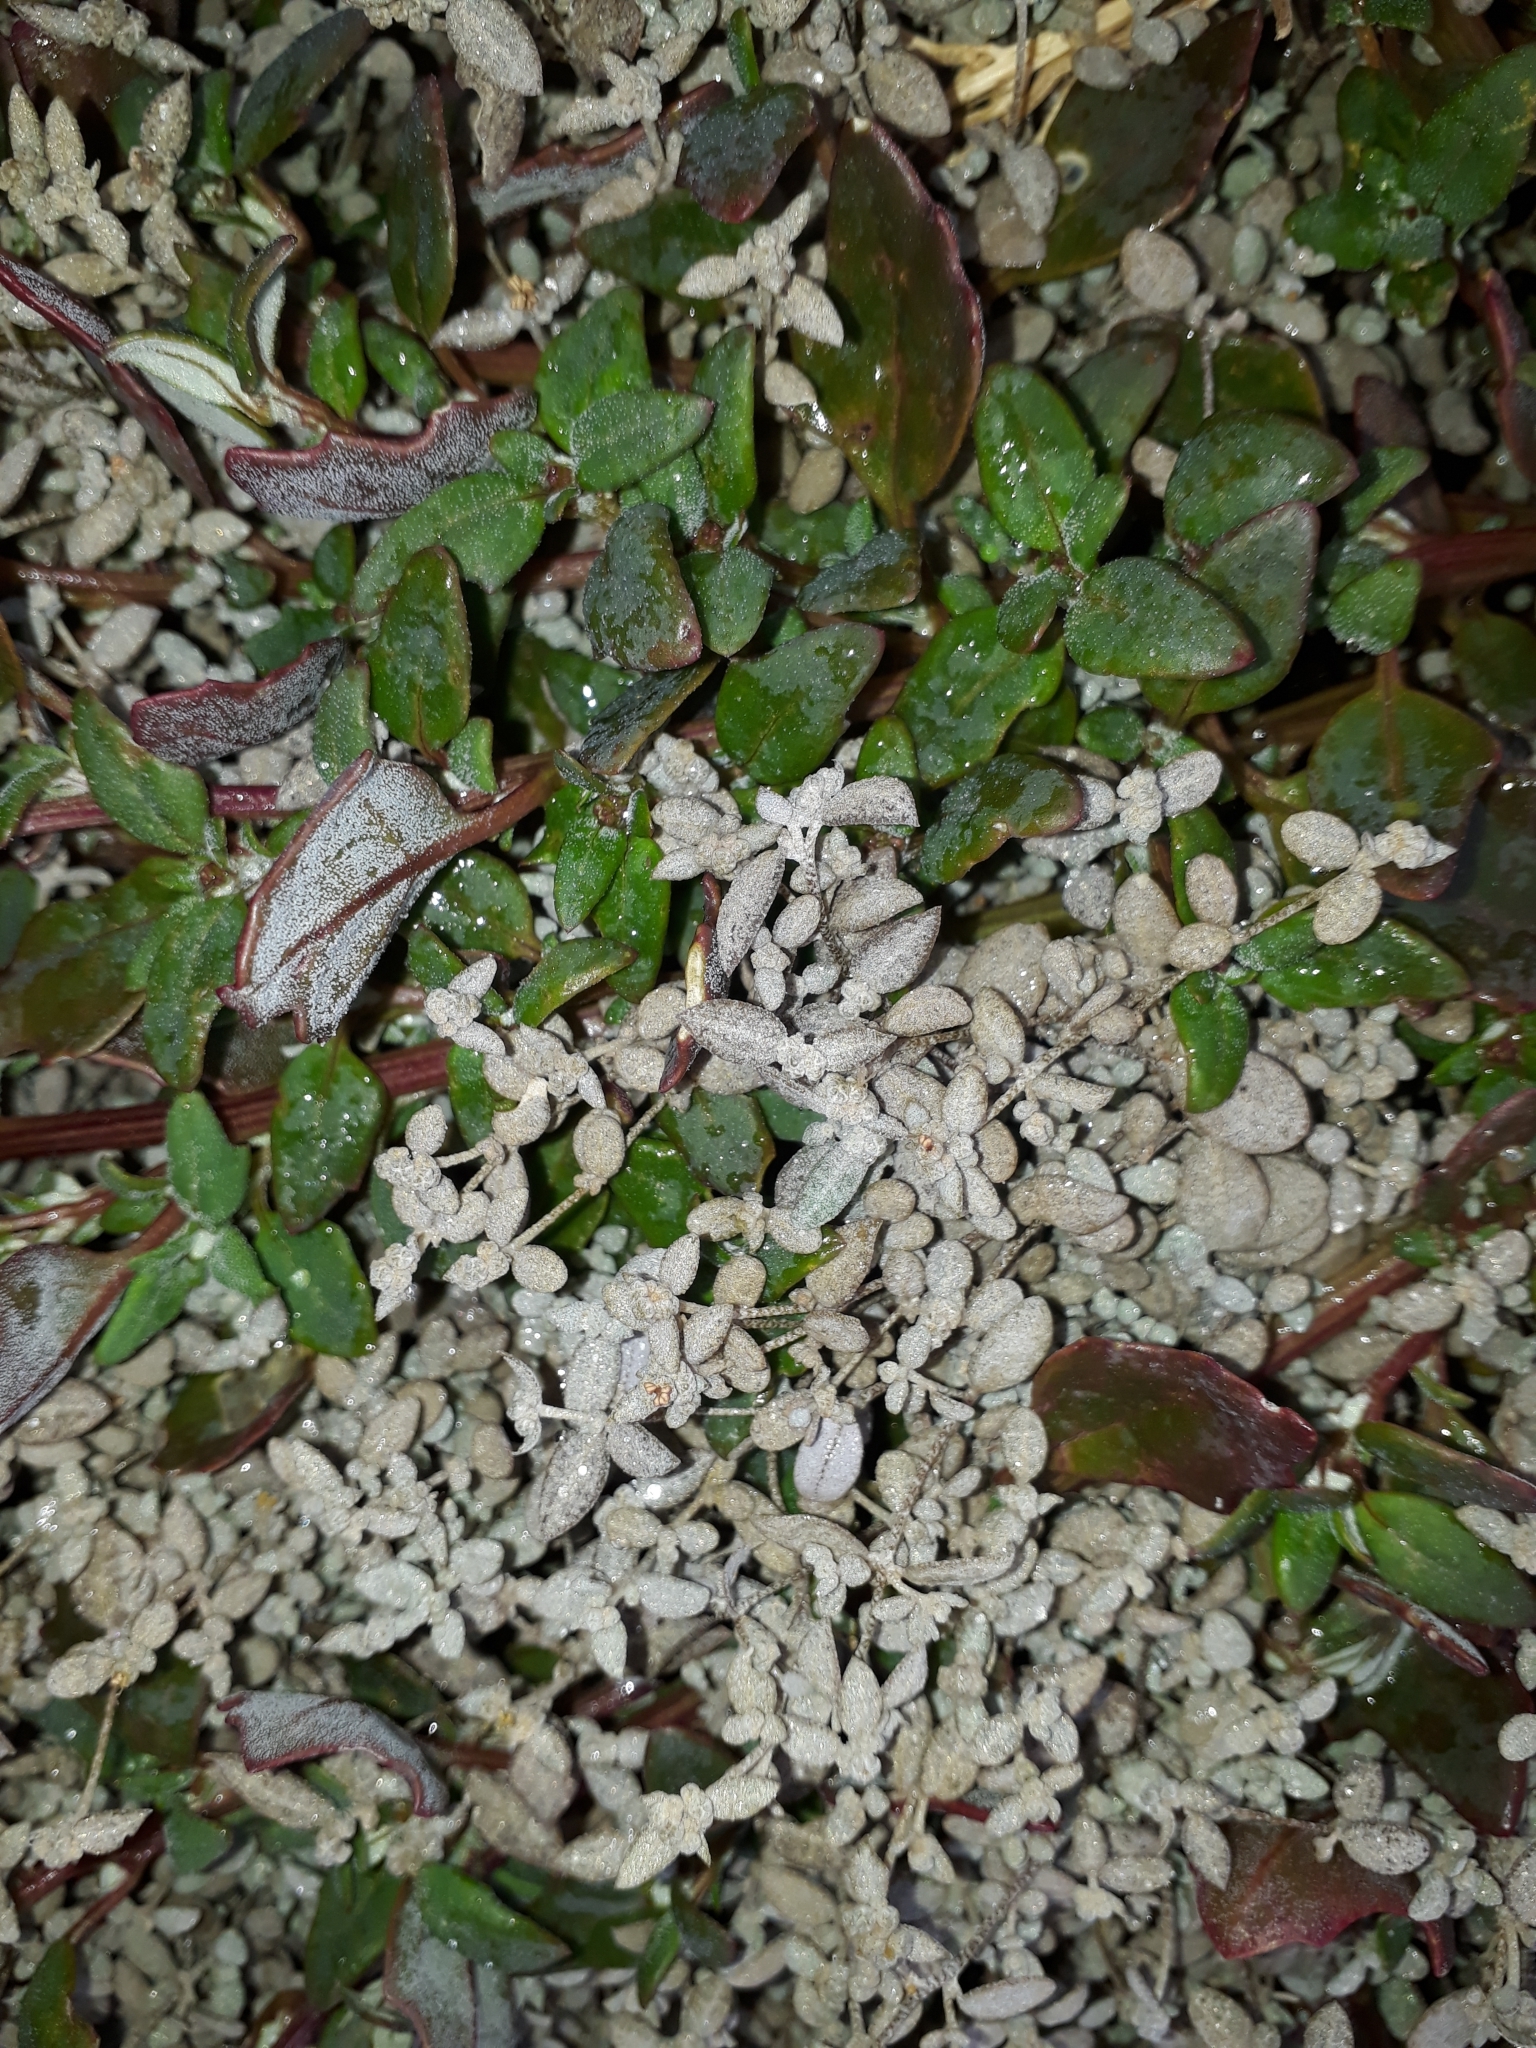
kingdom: Plantae
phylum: Tracheophyta
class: Magnoliopsida
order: Caryophyllales
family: Amaranthaceae
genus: Atriplex
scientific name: Atriplex buchananii
